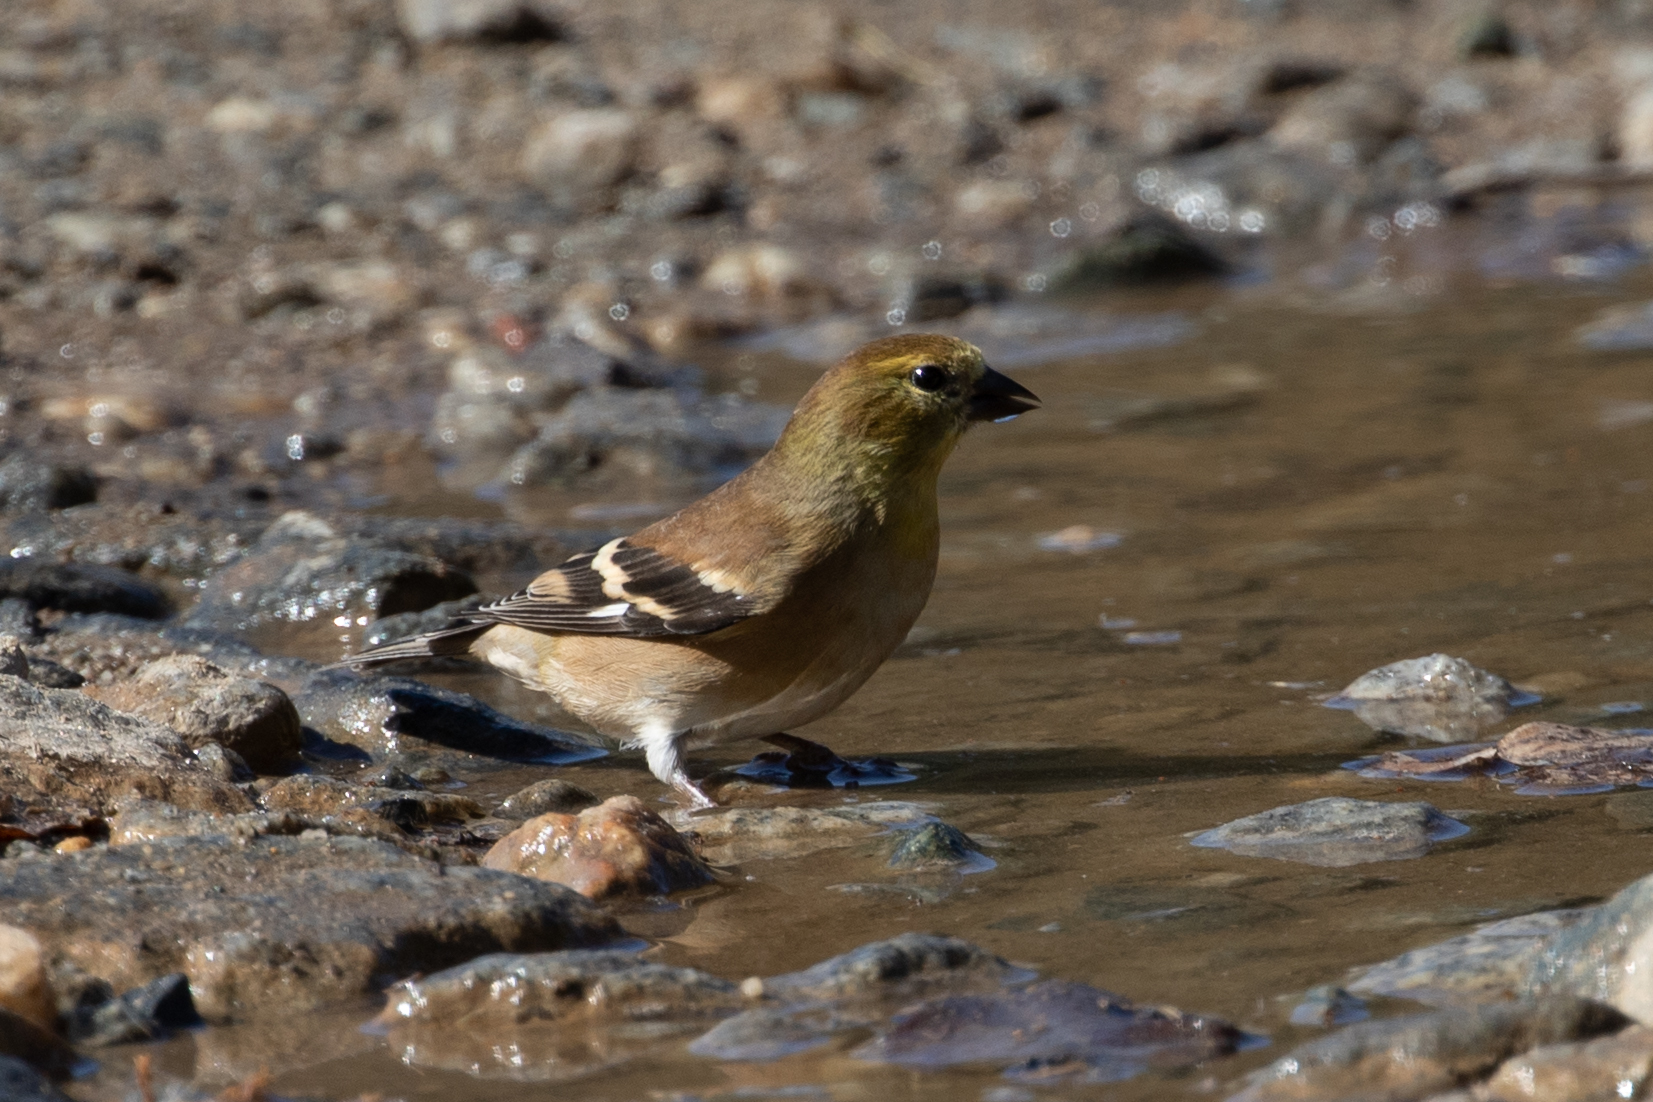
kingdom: Animalia
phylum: Chordata
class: Aves
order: Passeriformes
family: Fringillidae
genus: Spinus
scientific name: Spinus tristis
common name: American goldfinch
